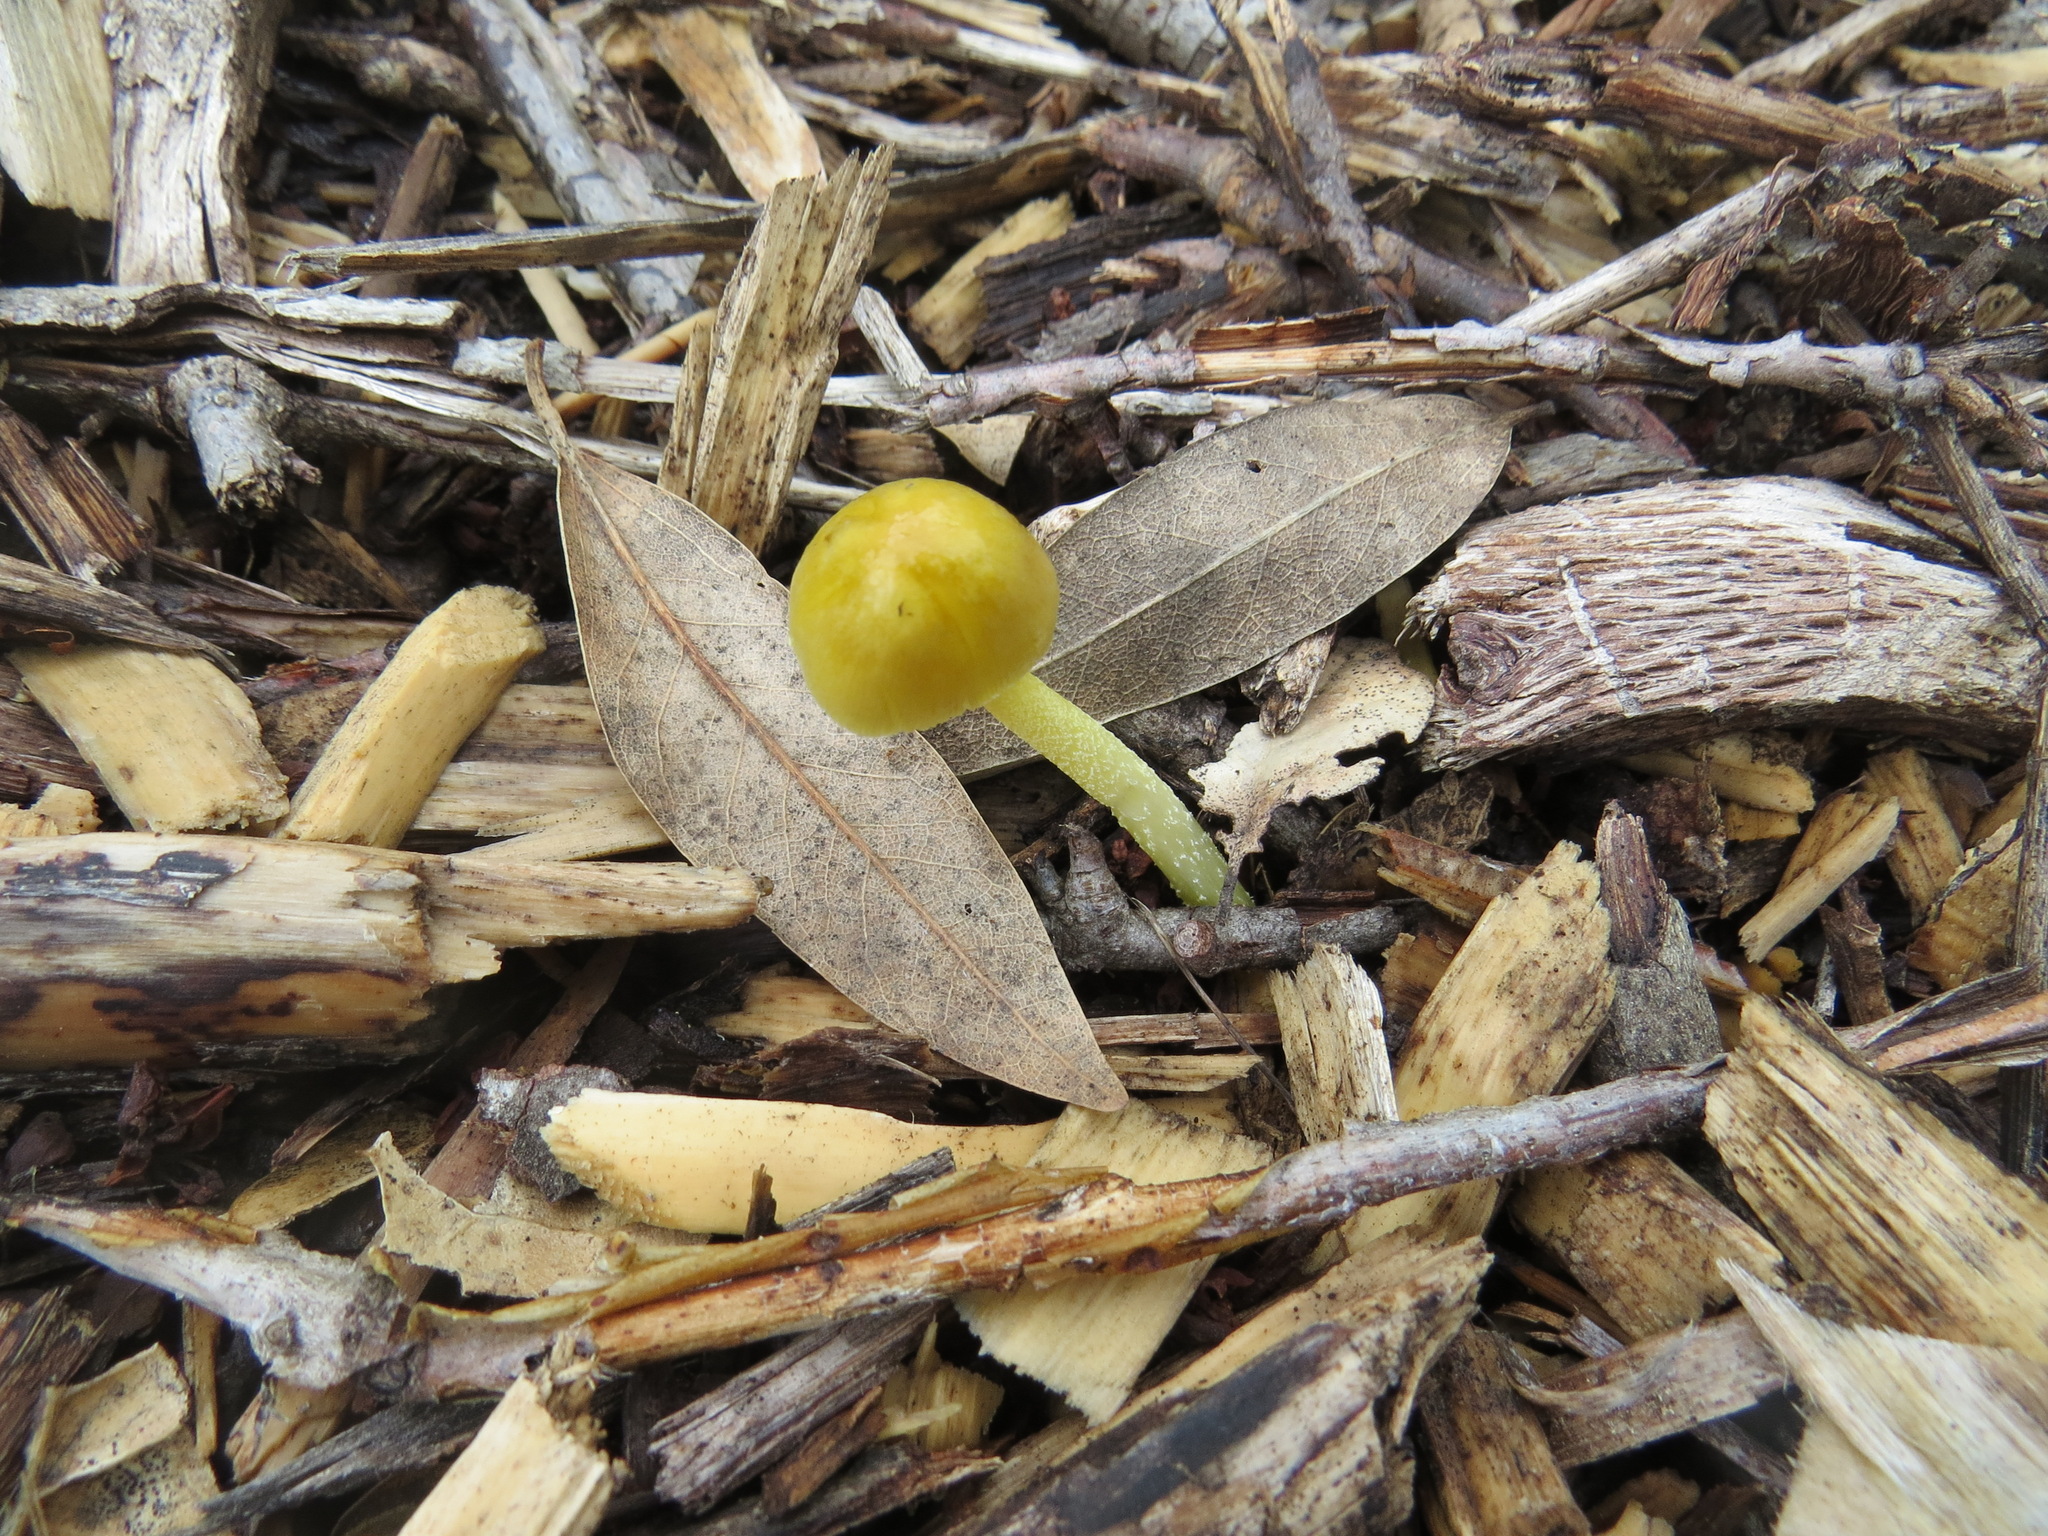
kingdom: Fungi
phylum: Basidiomycota
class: Agaricomycetes
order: Agaricales
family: Bolbitiaceae
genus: Bolbitius
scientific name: Bolbitius titubans
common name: Yellow fieldcap
